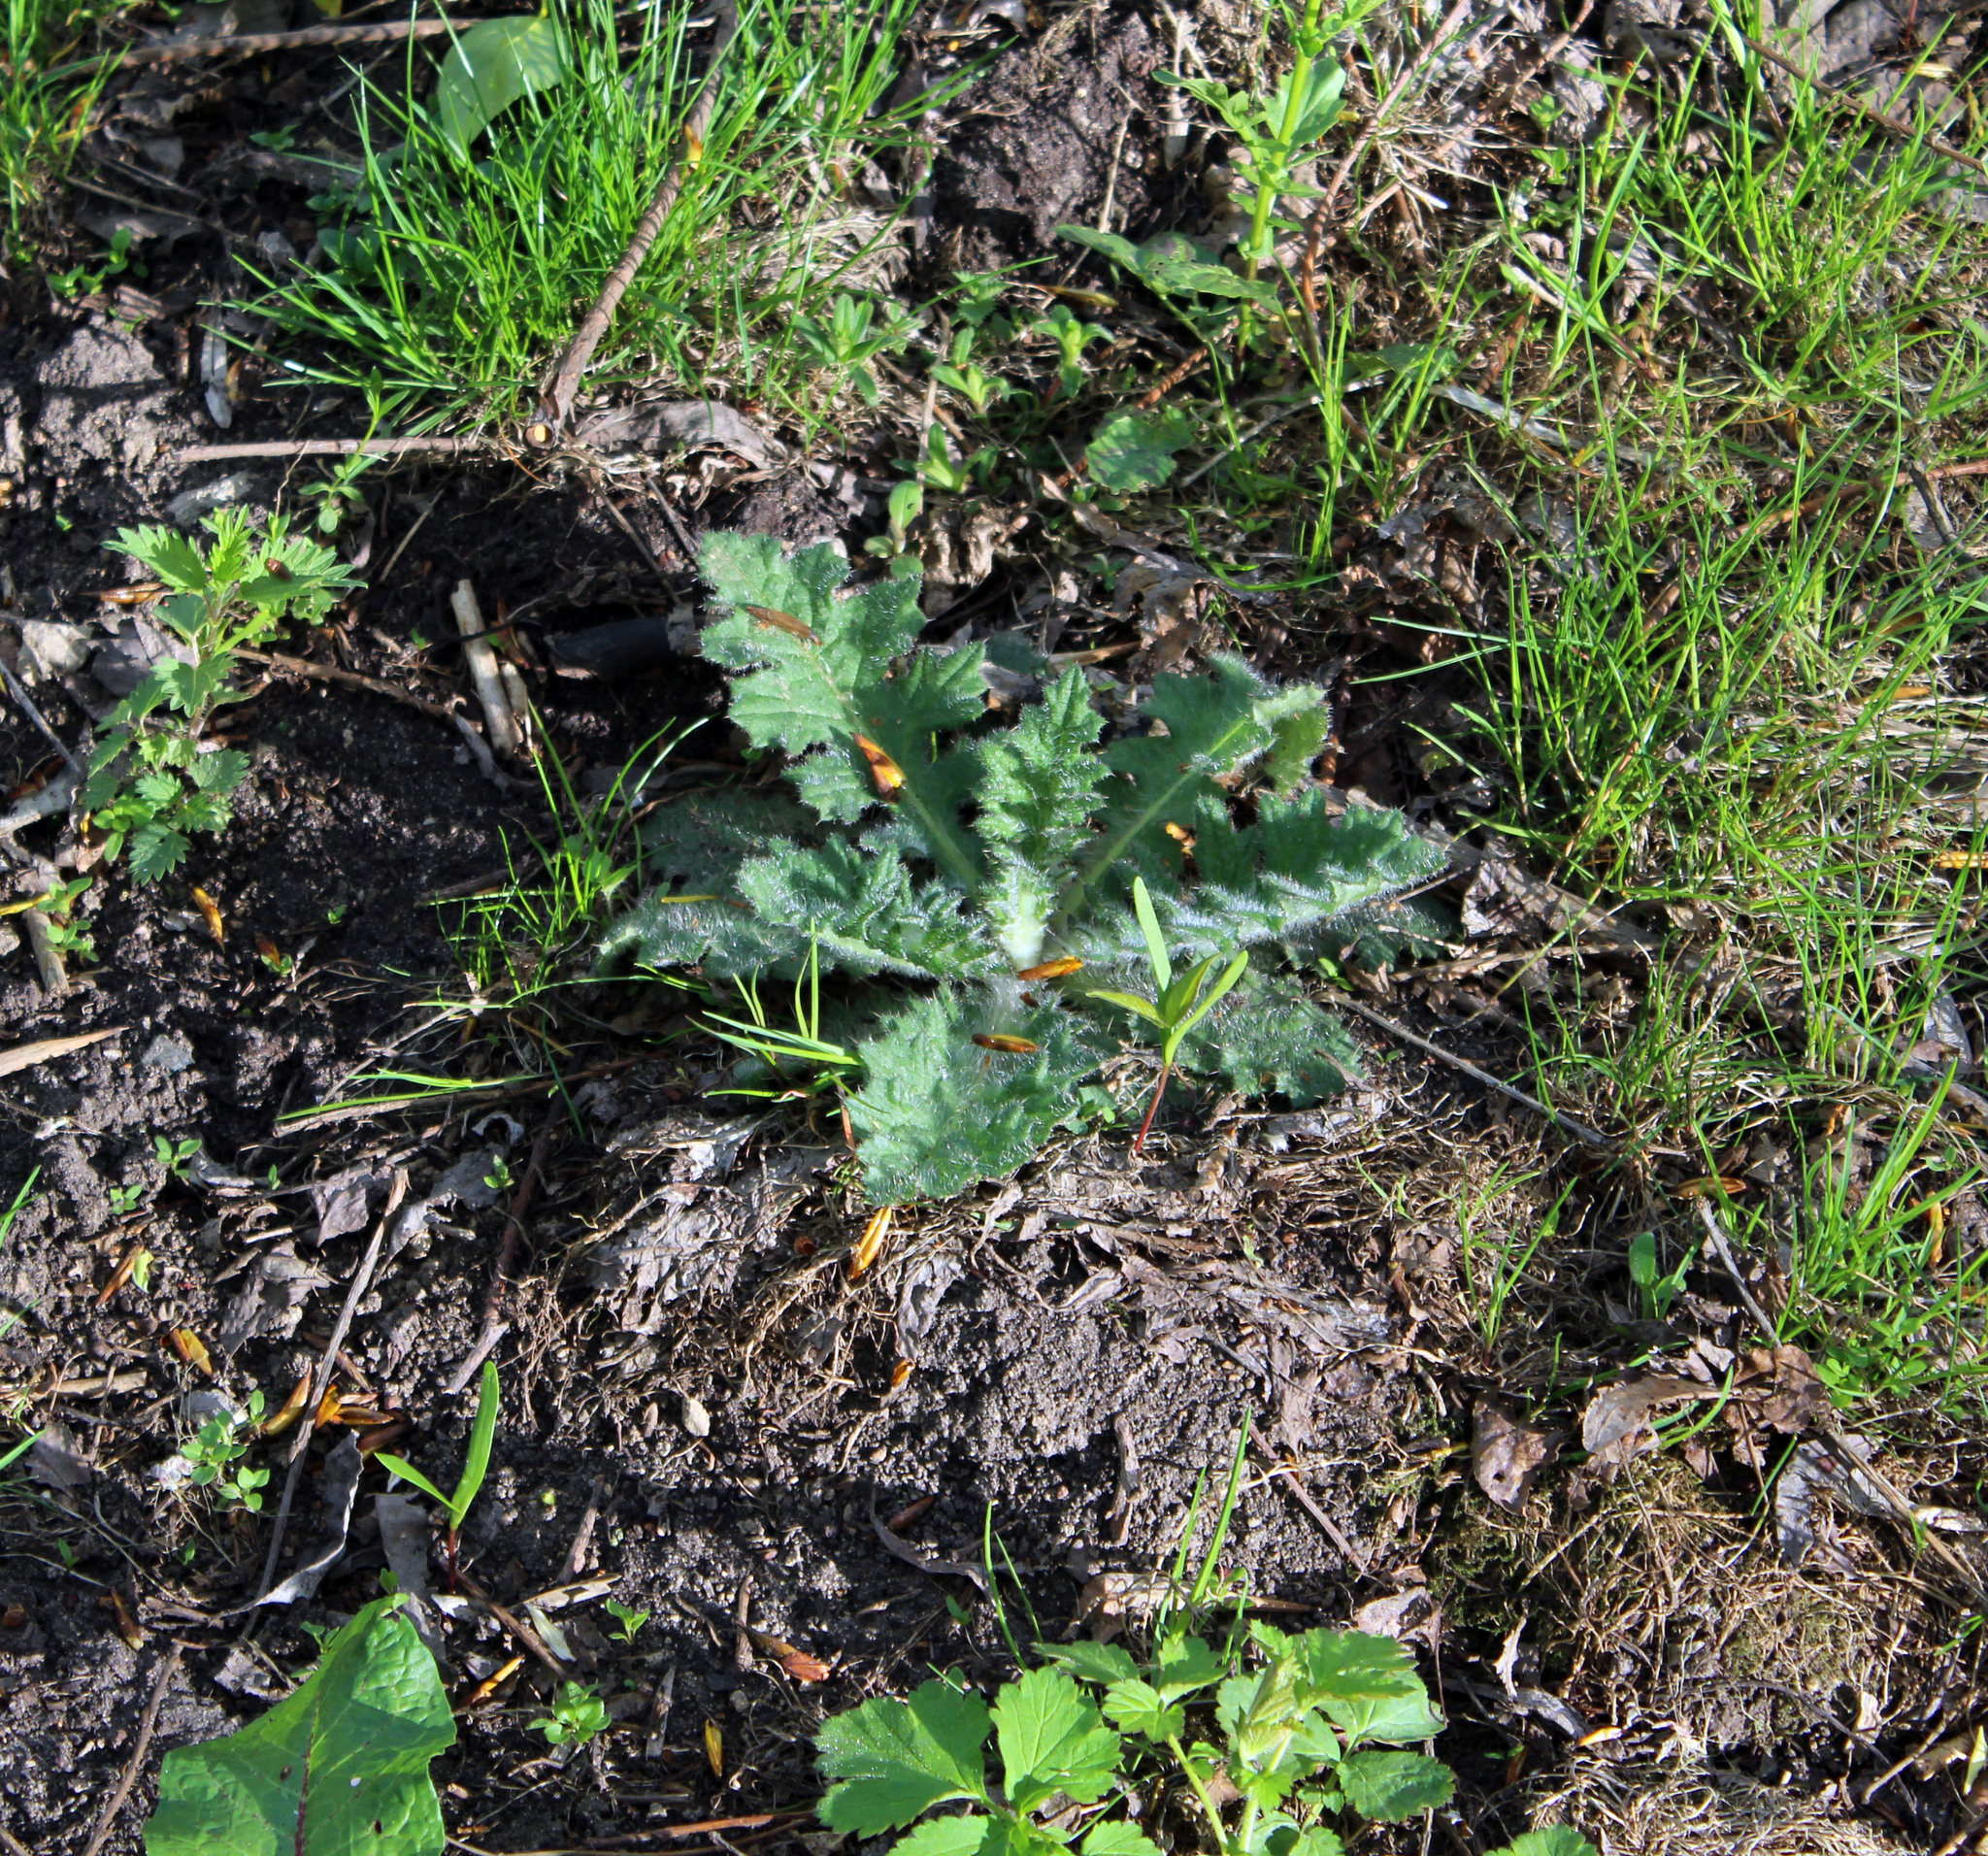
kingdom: Plantae
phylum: Tracheophyta
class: Magnoliopsida
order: Asterales
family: Asteraceae
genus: Cirsium
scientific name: Cirsium vulgare
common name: Bull thistle
